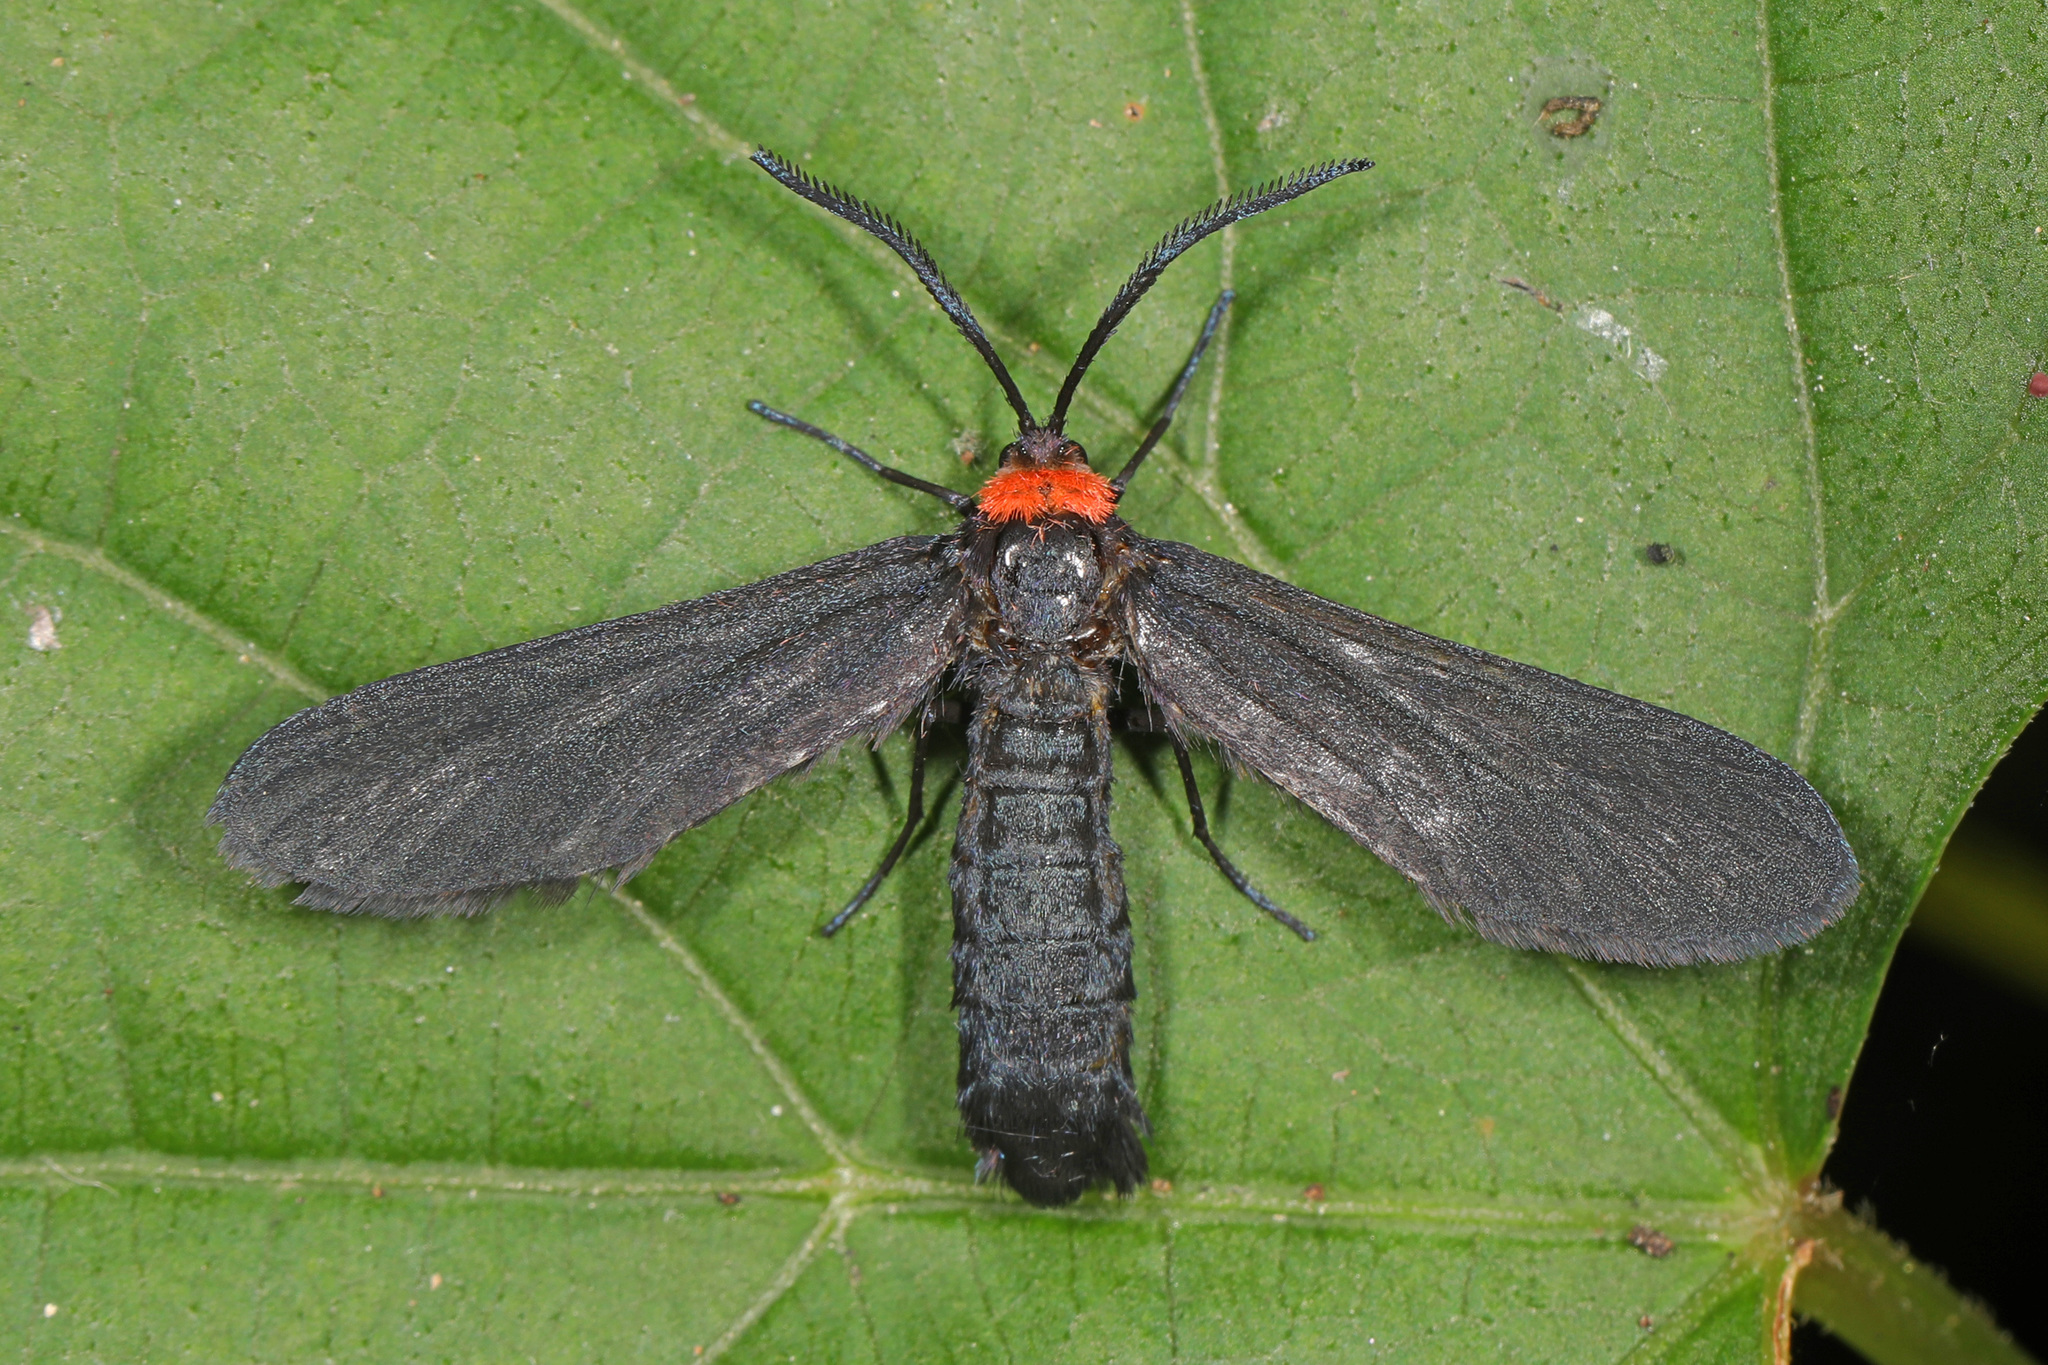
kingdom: Animalia
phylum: Arthropoda
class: Insecta
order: Lepidoptera
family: Zygaenidae
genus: Harrisina
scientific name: Harrisina americana
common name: Grapeleaf skeletonizer moth
